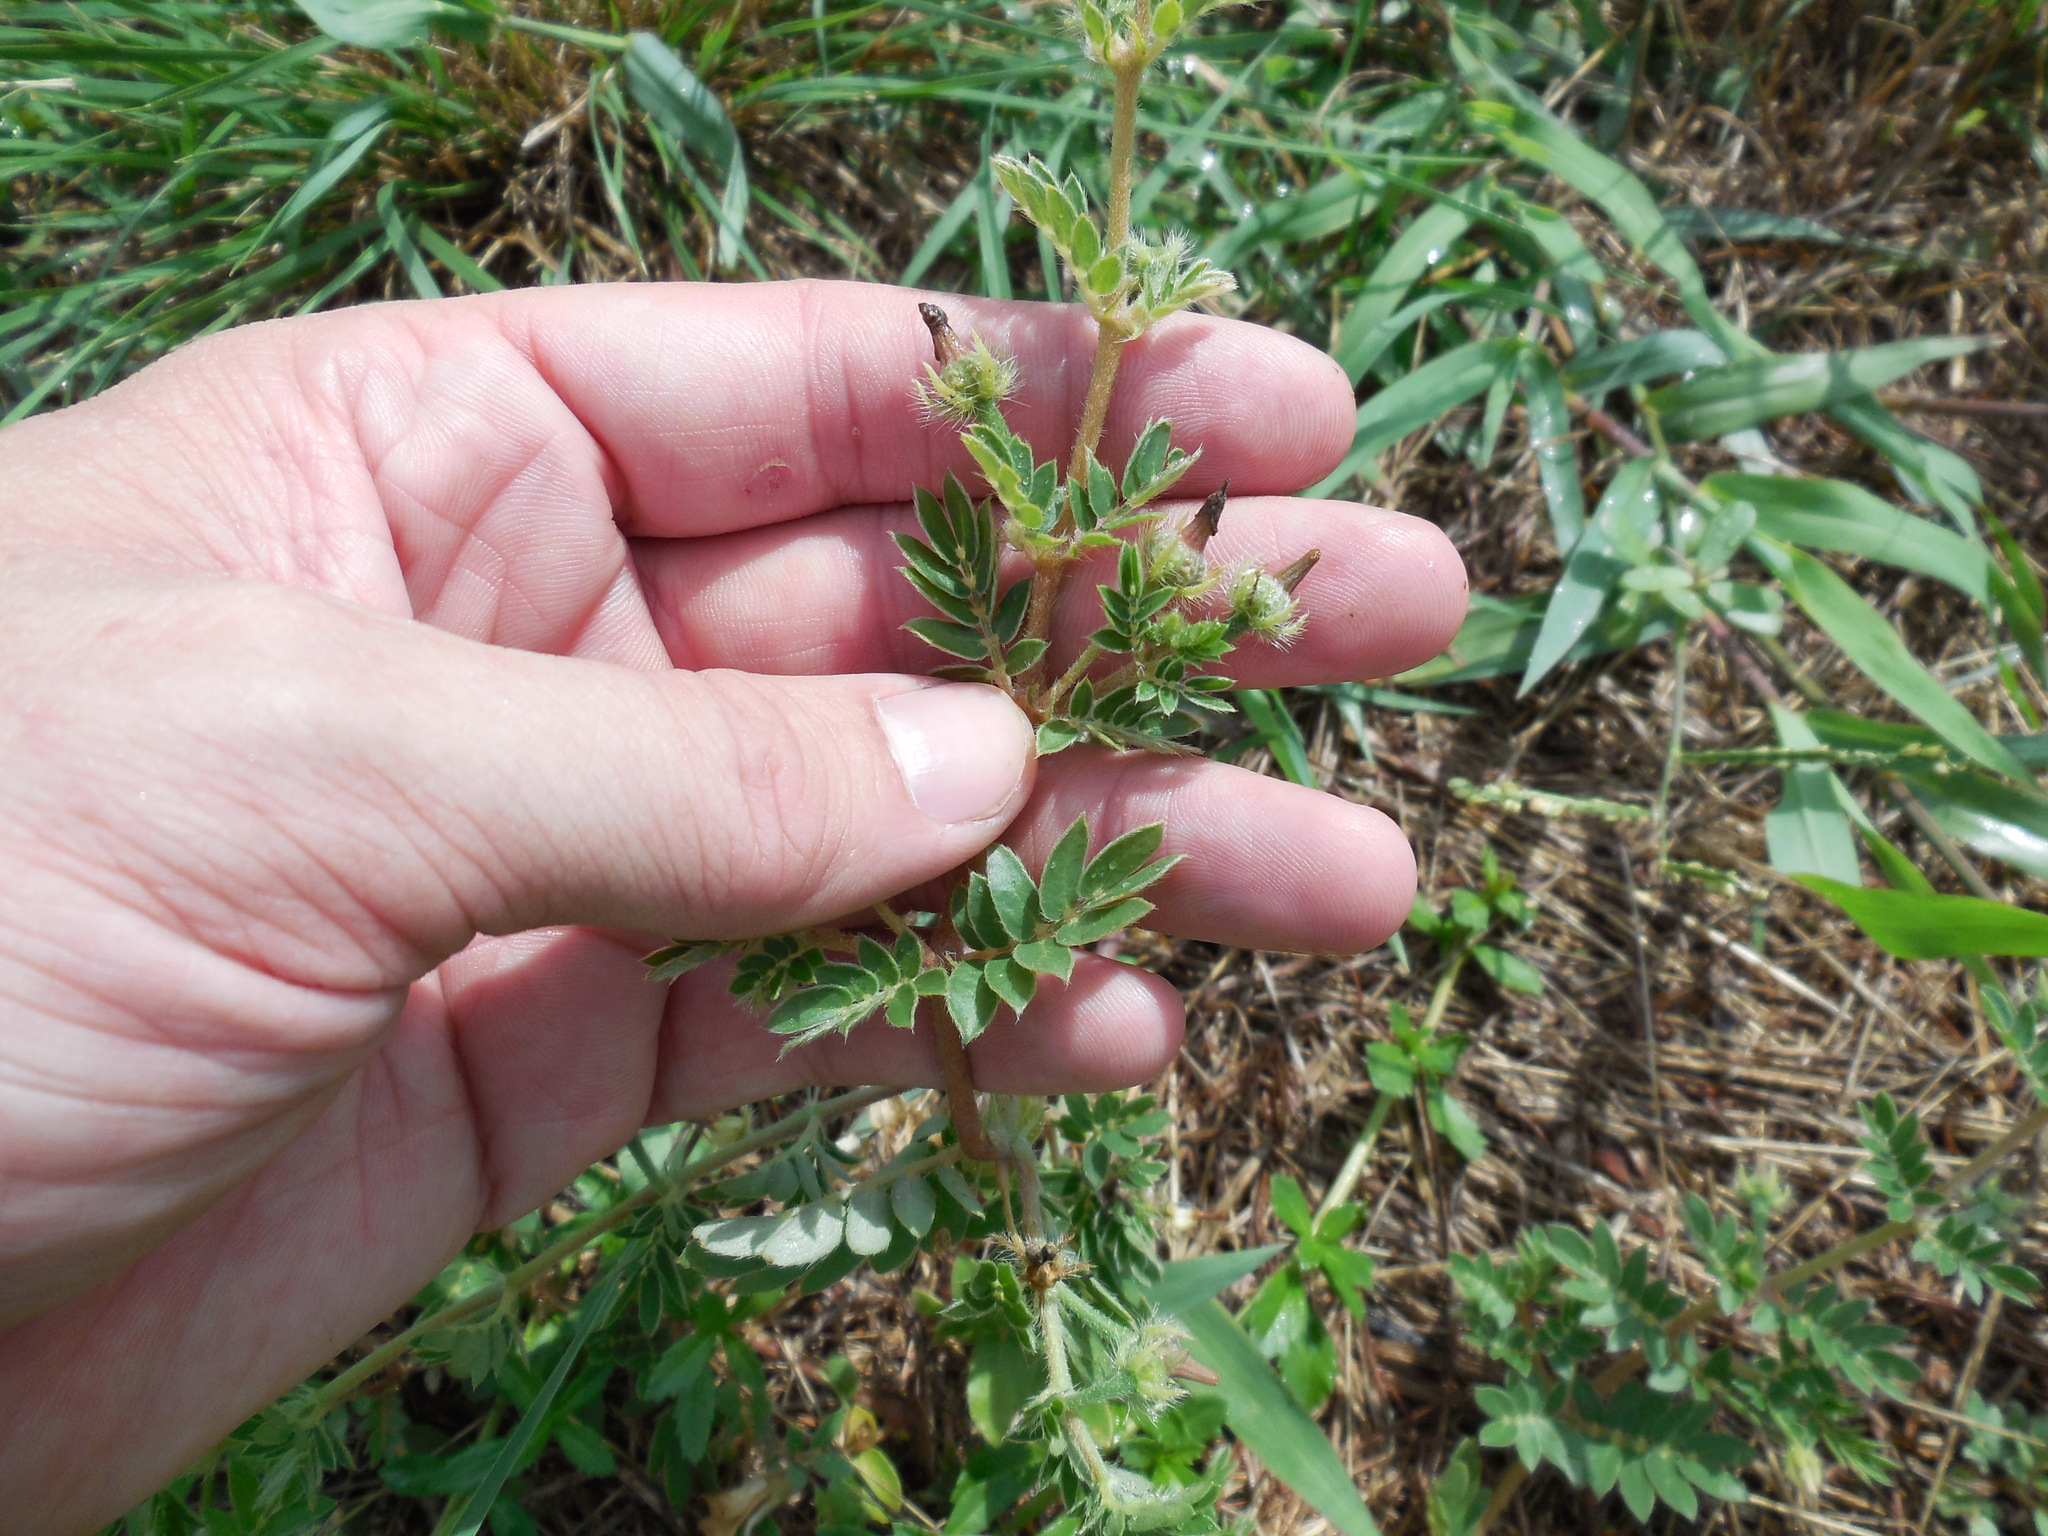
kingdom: Plantae
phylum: Tracheophyta
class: Magnoliopsida
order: Zygophyllales
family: Zygophyllaceae
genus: Kallstroemia
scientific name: Kallstroemia parviflora
